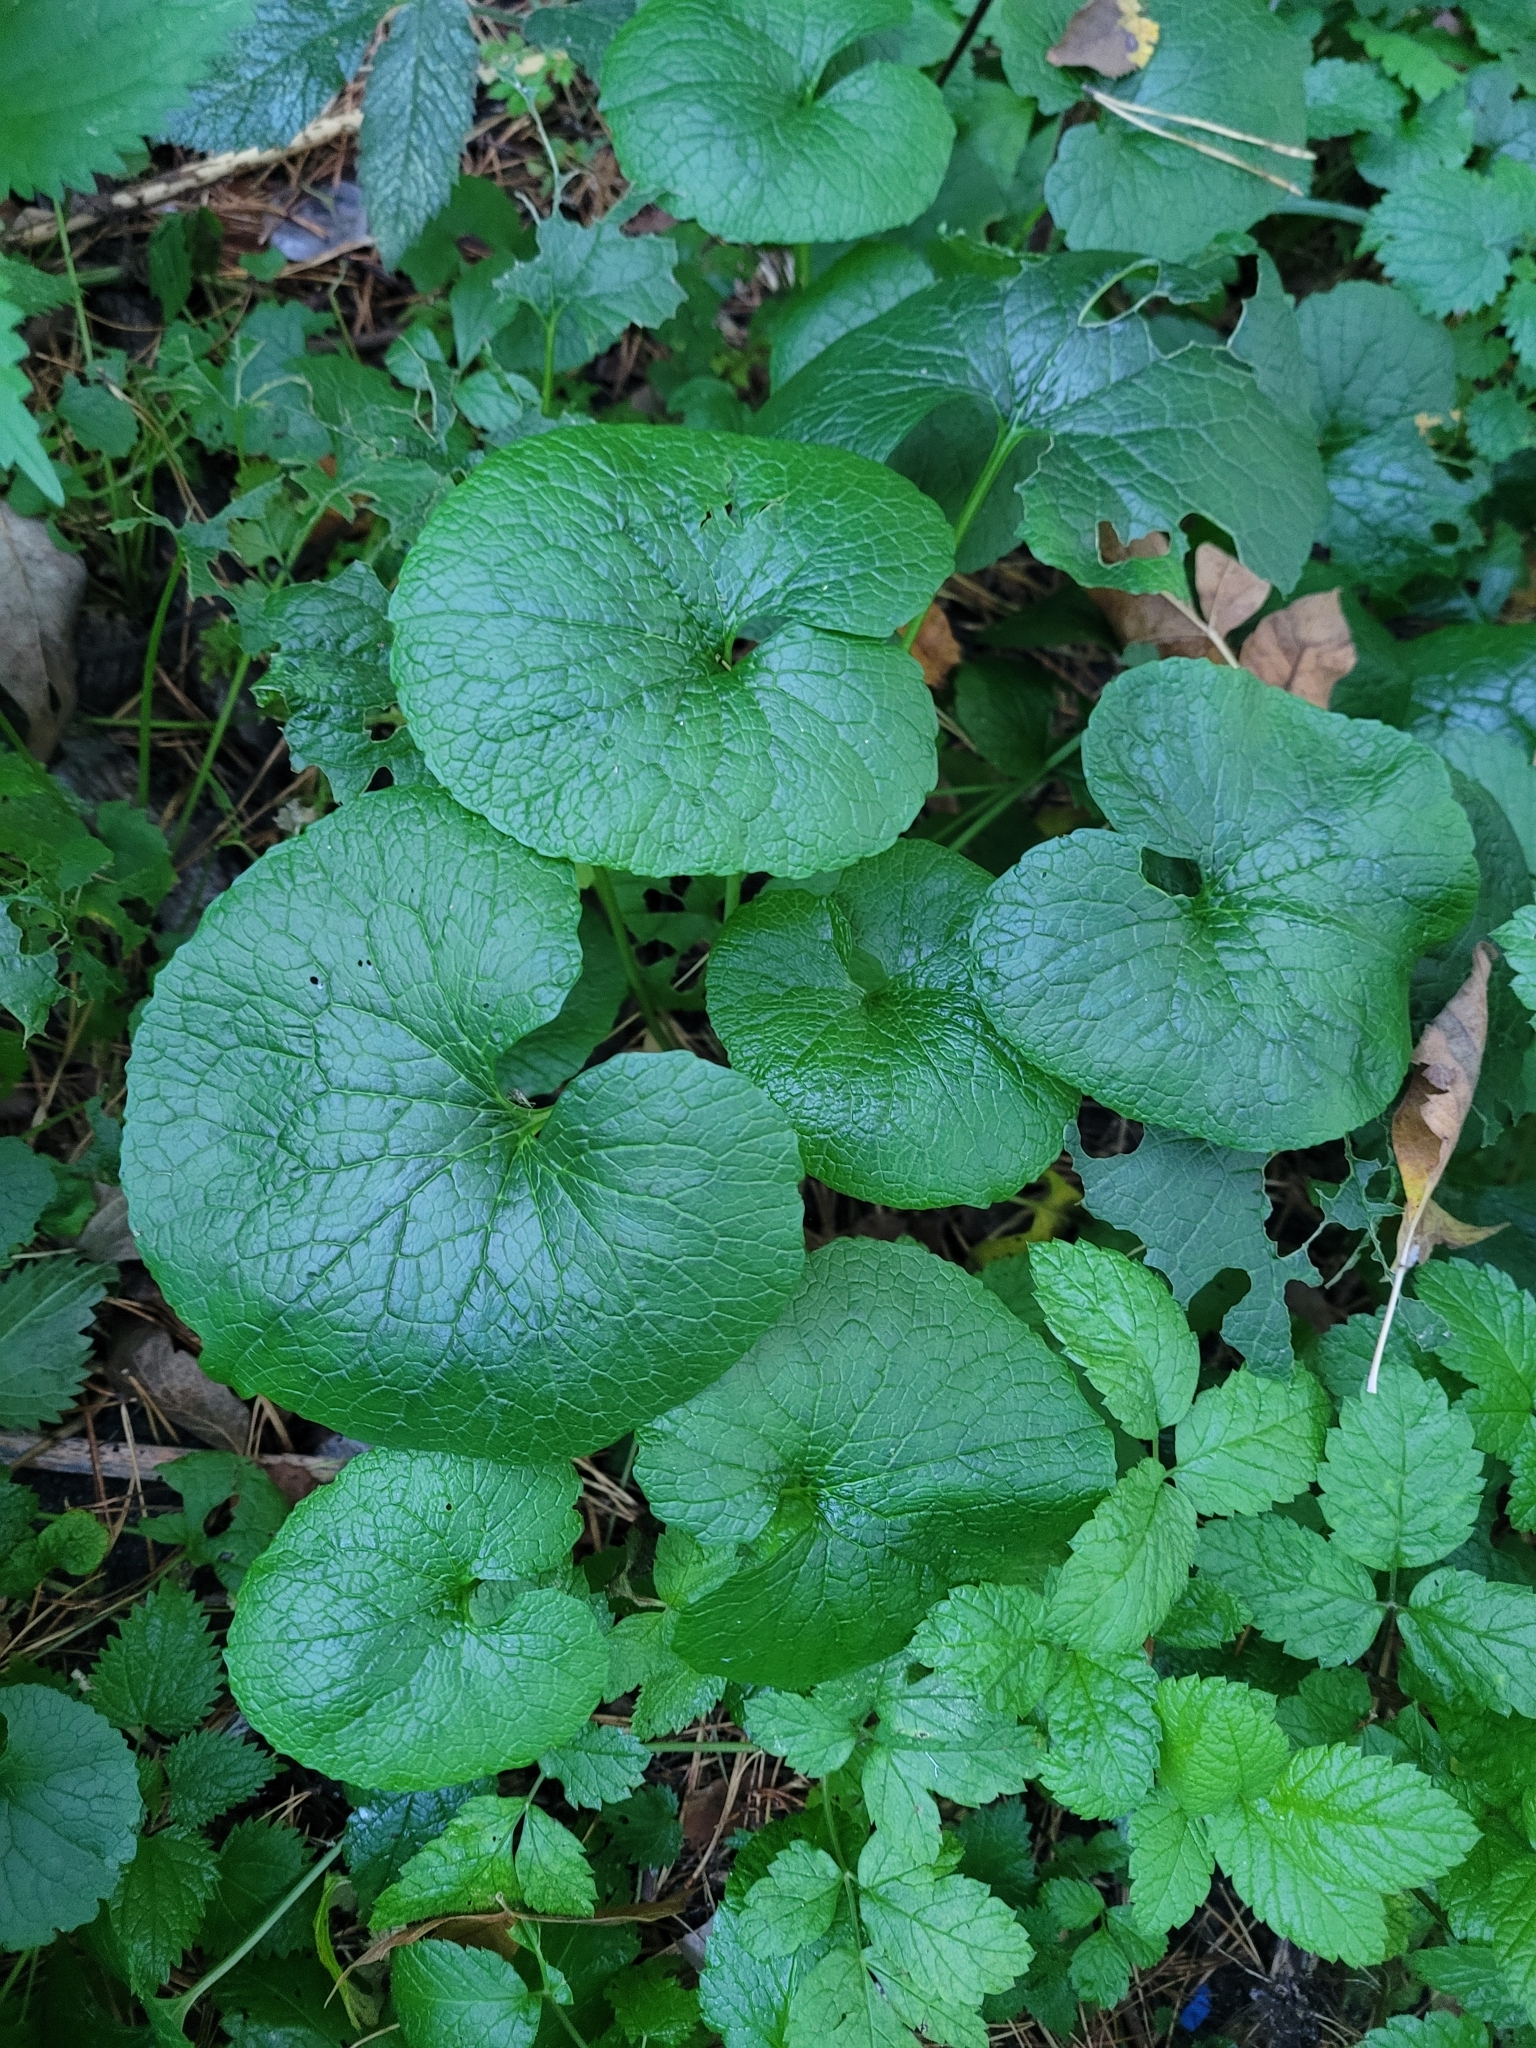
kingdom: Plantae
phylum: Tracheophyta
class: Magnoliopsida
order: Brassicales
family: Brassicaceae
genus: Alliaria
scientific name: Alliaria petiolata
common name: Garlic mustard
